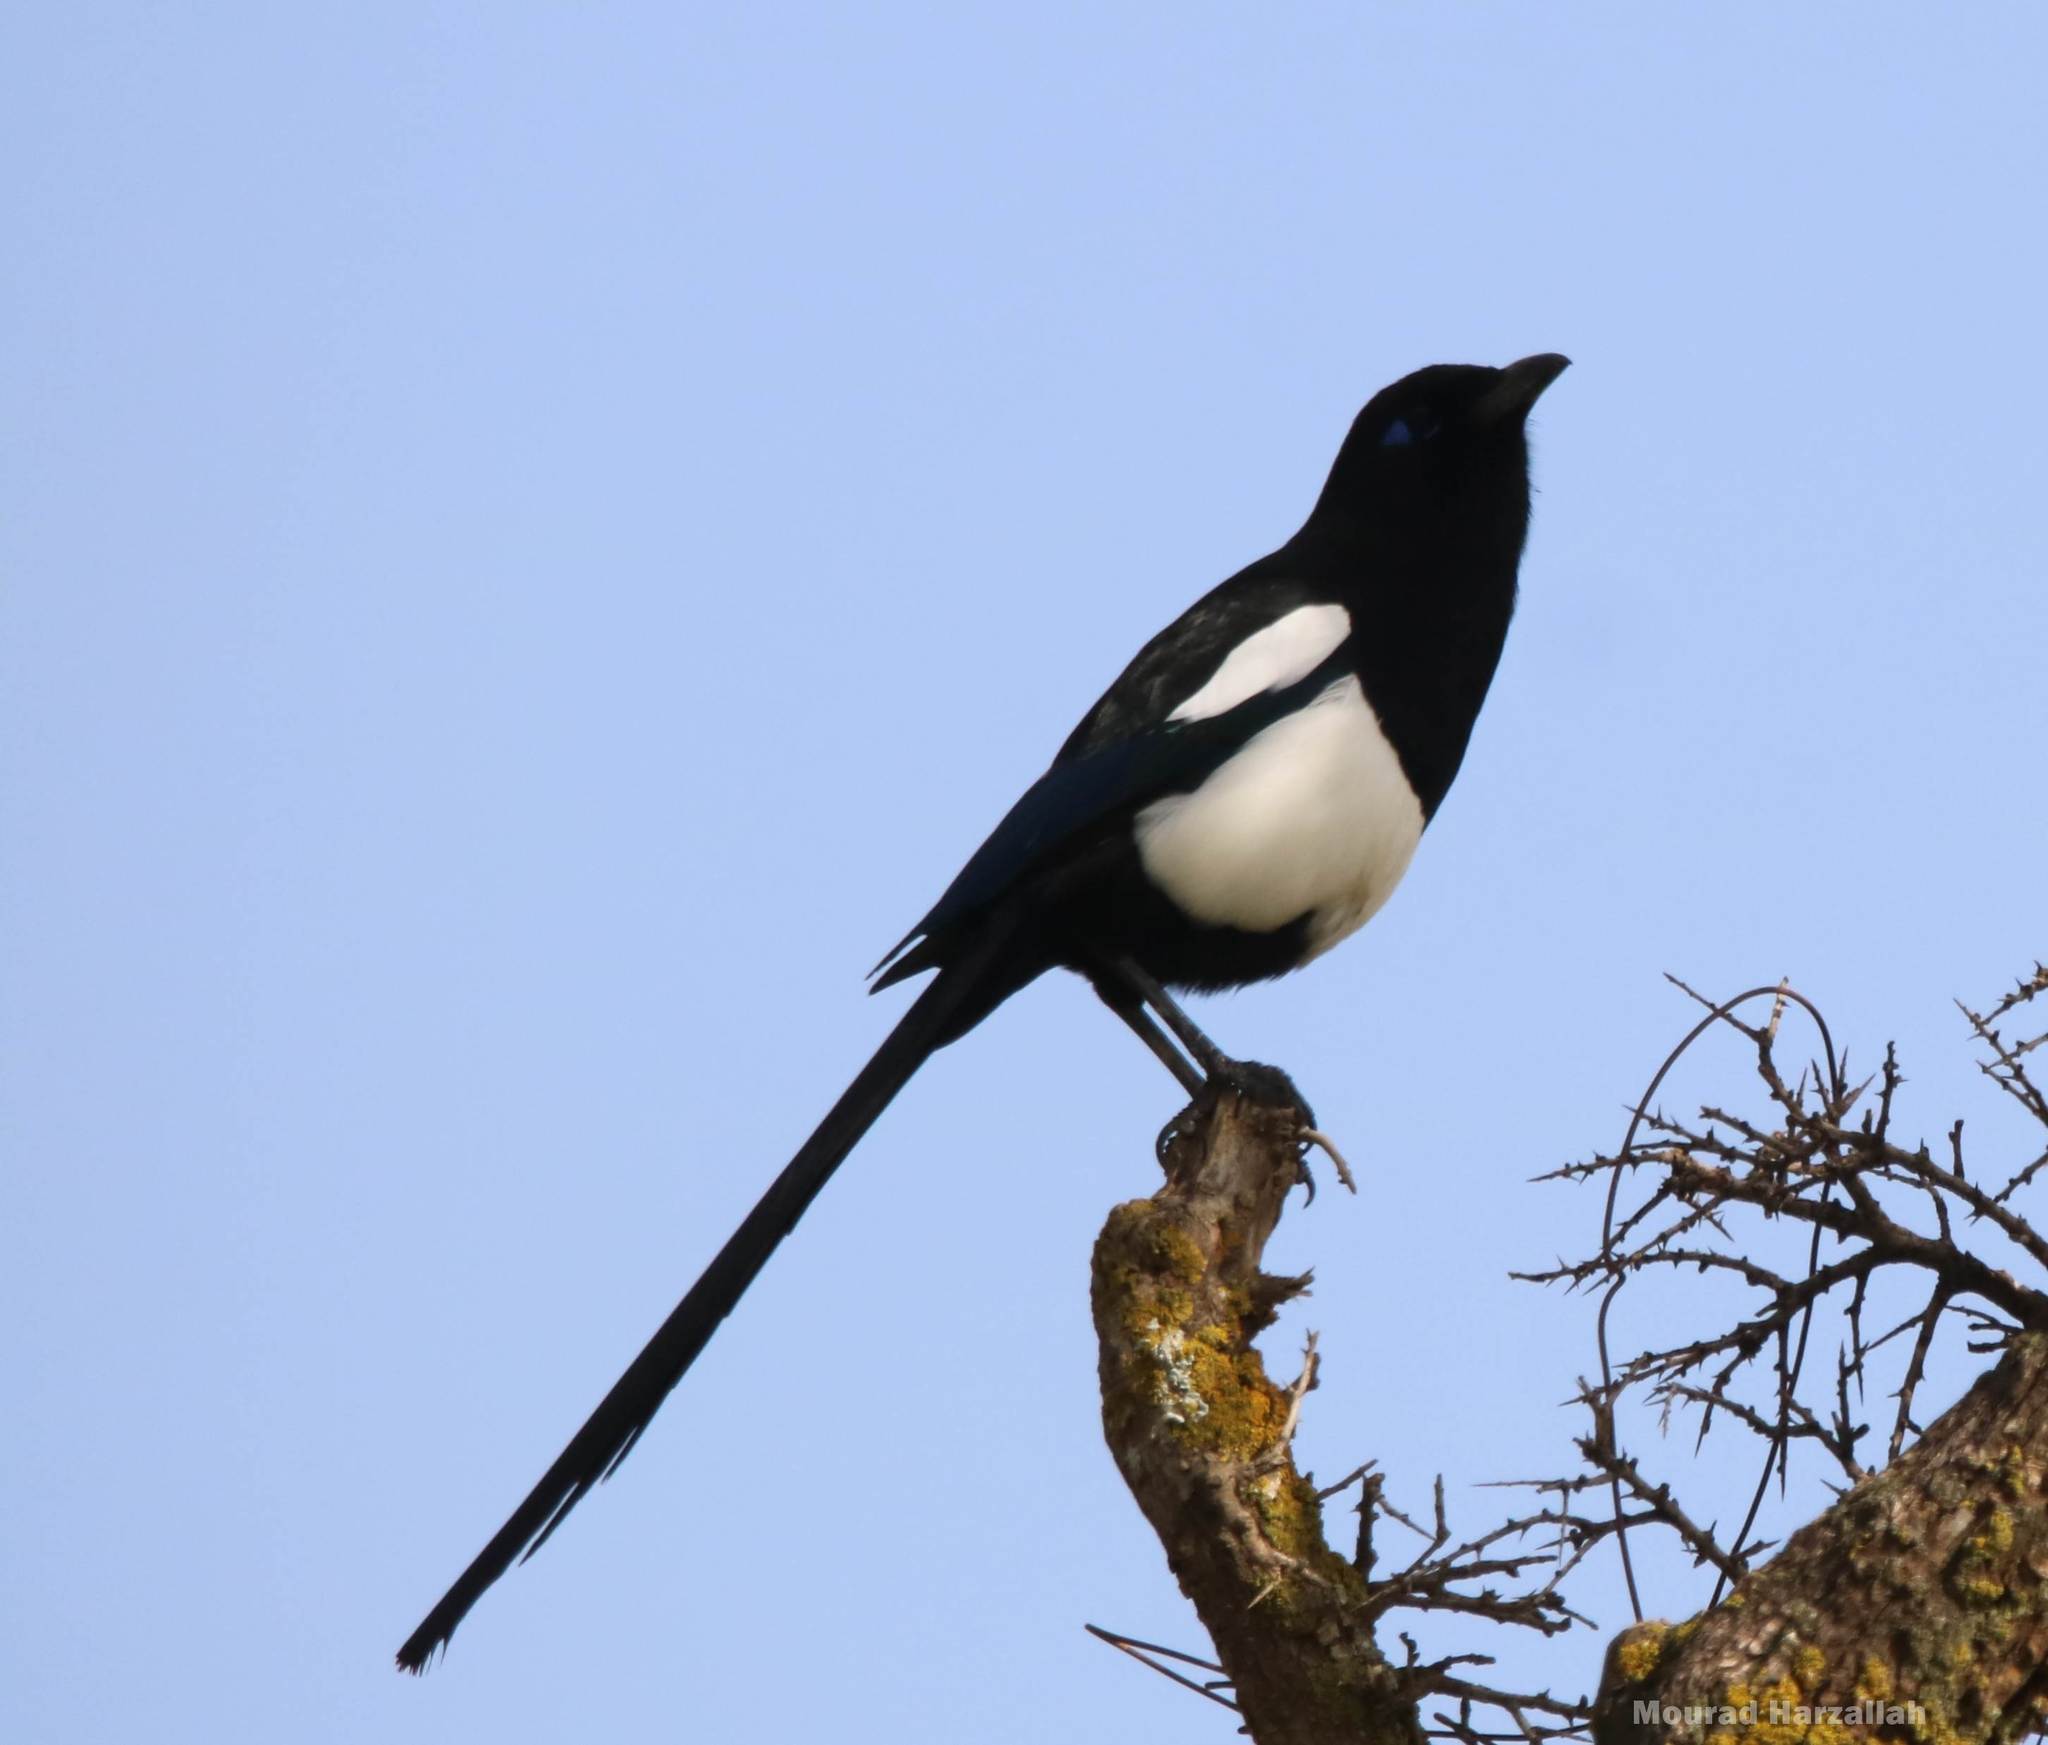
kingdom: Animalia
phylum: Chordata
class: Aves
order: Passeriformes
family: Corvidae
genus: Pica
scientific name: Pica mauritanica
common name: Maghreb magpie
